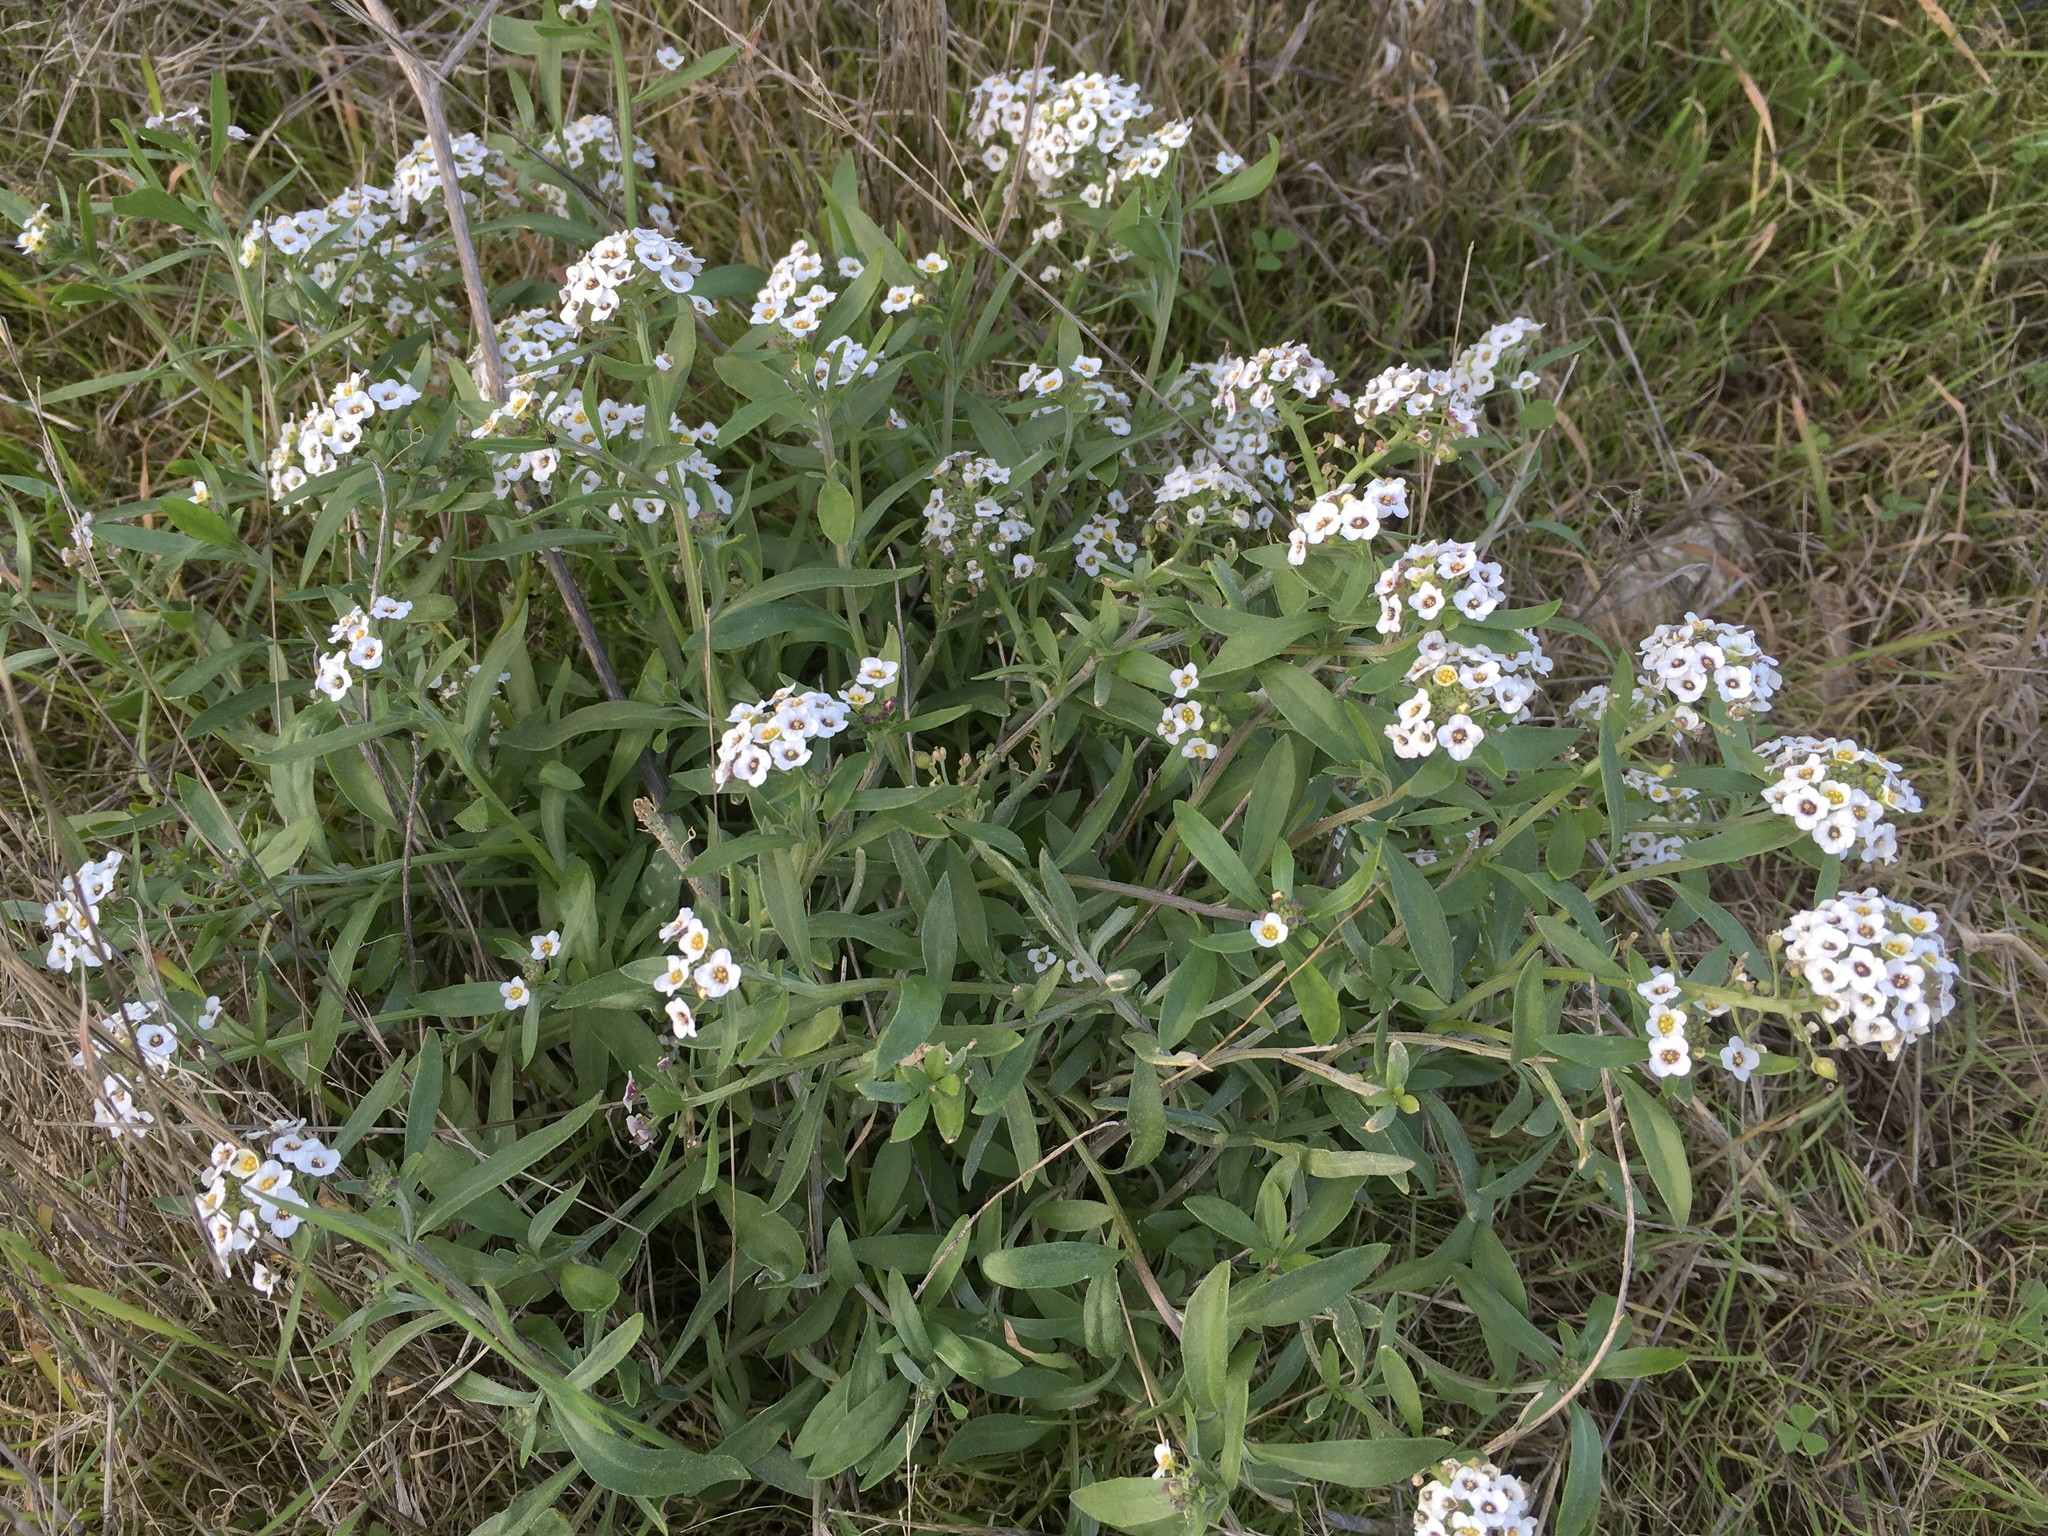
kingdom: Plantae
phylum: Tracheophyta
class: Magnoliopsida
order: Brassicales
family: Brassicaceae
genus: Lobularia
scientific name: Lobularia maritima
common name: Sweet alison
